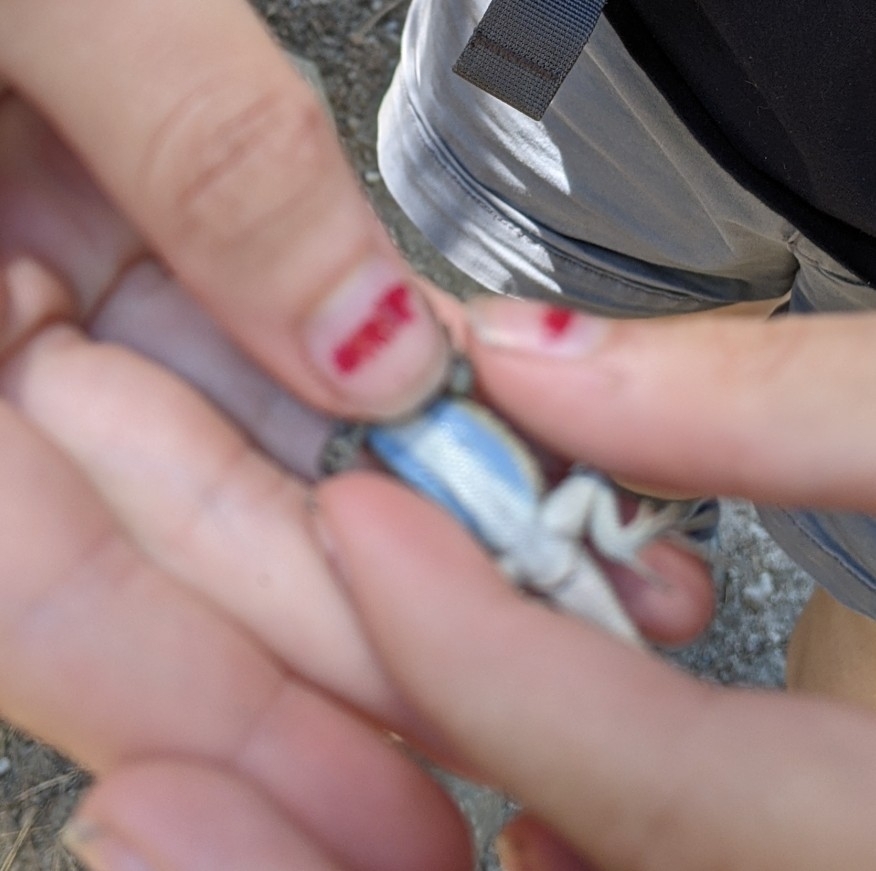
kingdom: Animalia
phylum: Chordata
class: Squamata
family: Phrynosomatidae
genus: Sceloporus
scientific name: Sceloporus occidentalis
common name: Western fence lizard
